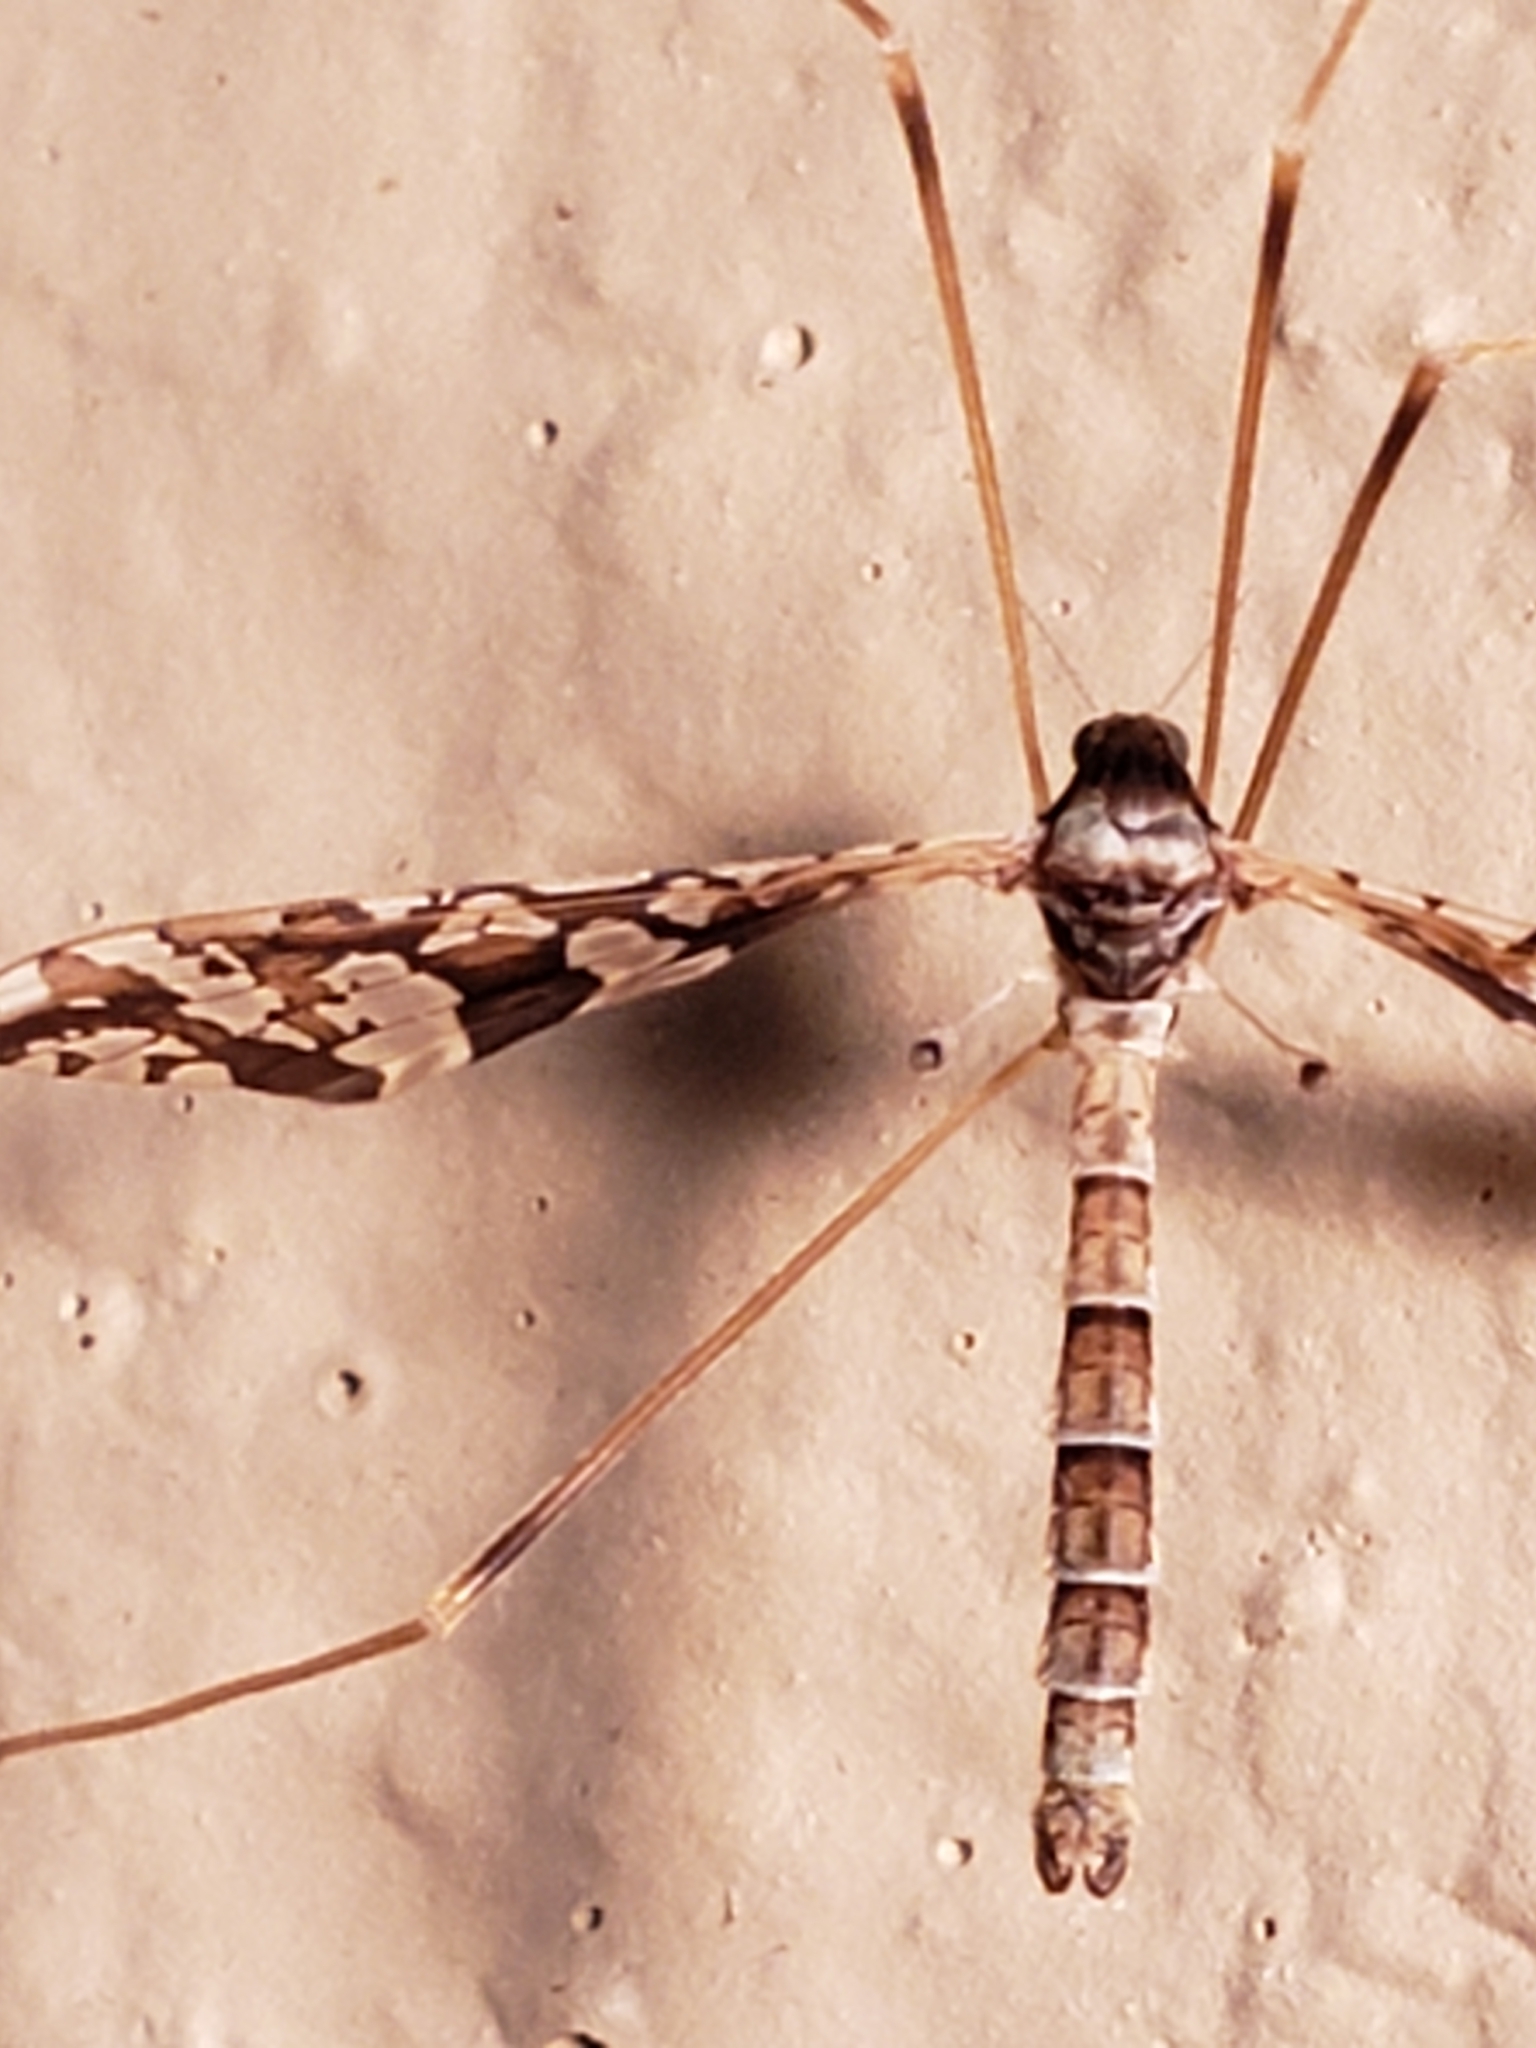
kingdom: Animalia
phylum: Arthropoda
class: Insecta
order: Diptera
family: Limoniidae
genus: Epiphragma
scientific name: Epiphragma solatrix
